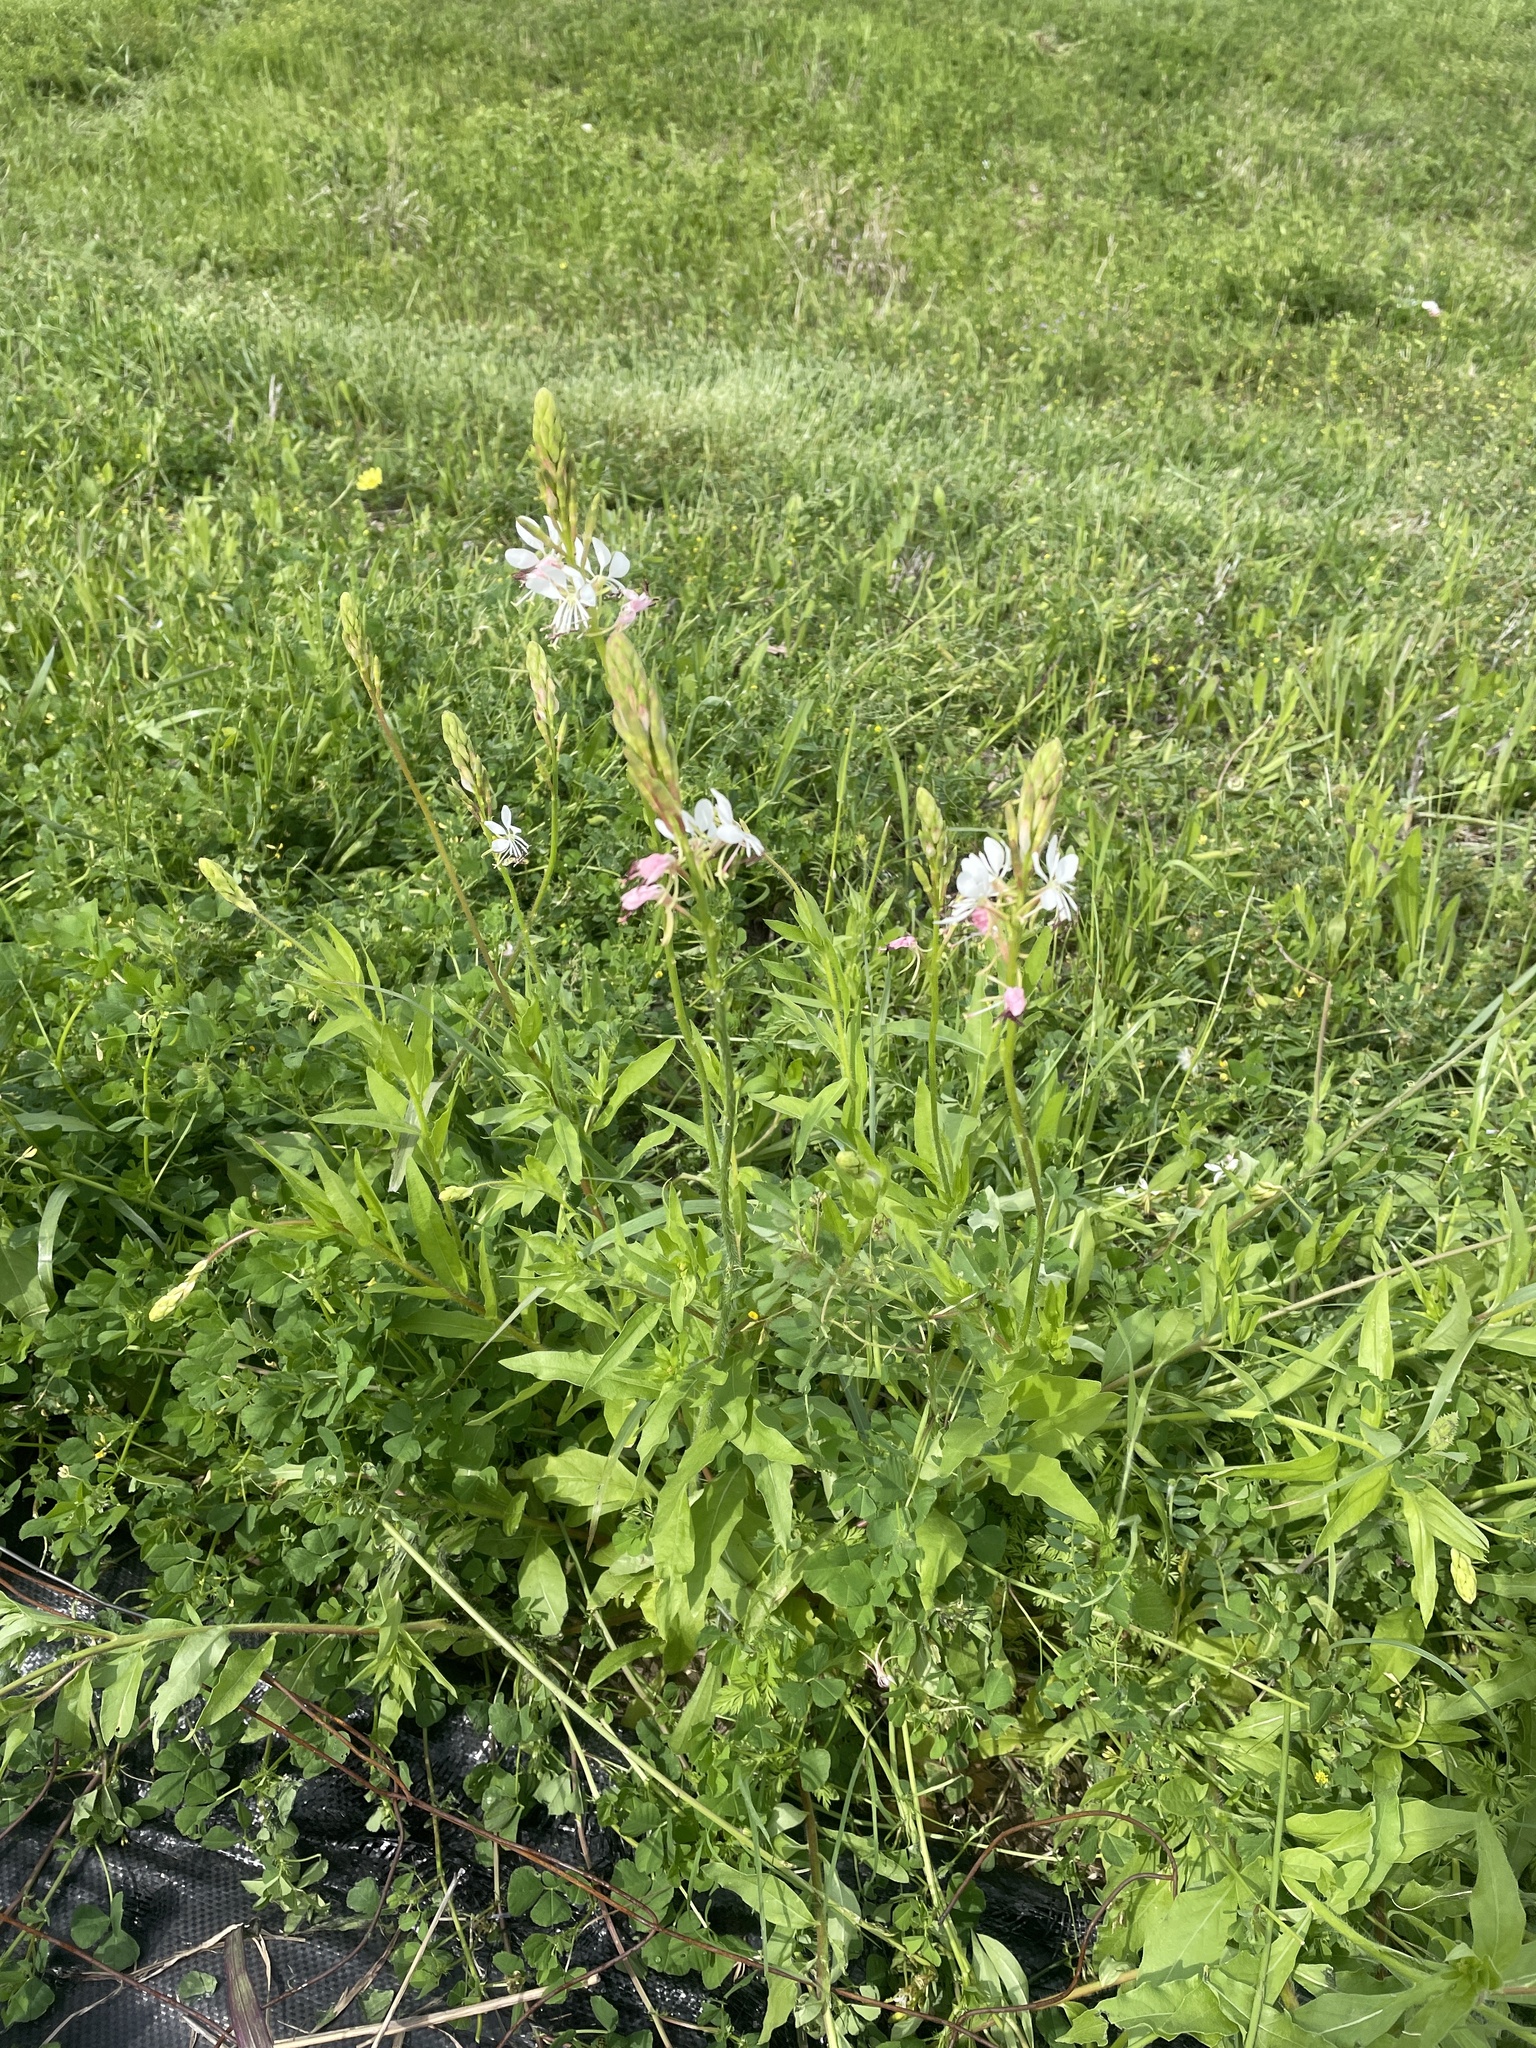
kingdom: Plantae
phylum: Tracheophyta
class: Magnoliopsida
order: Myrtales
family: Onagraceae
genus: Oenothera
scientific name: Oenothera suffulta
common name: Kisses
